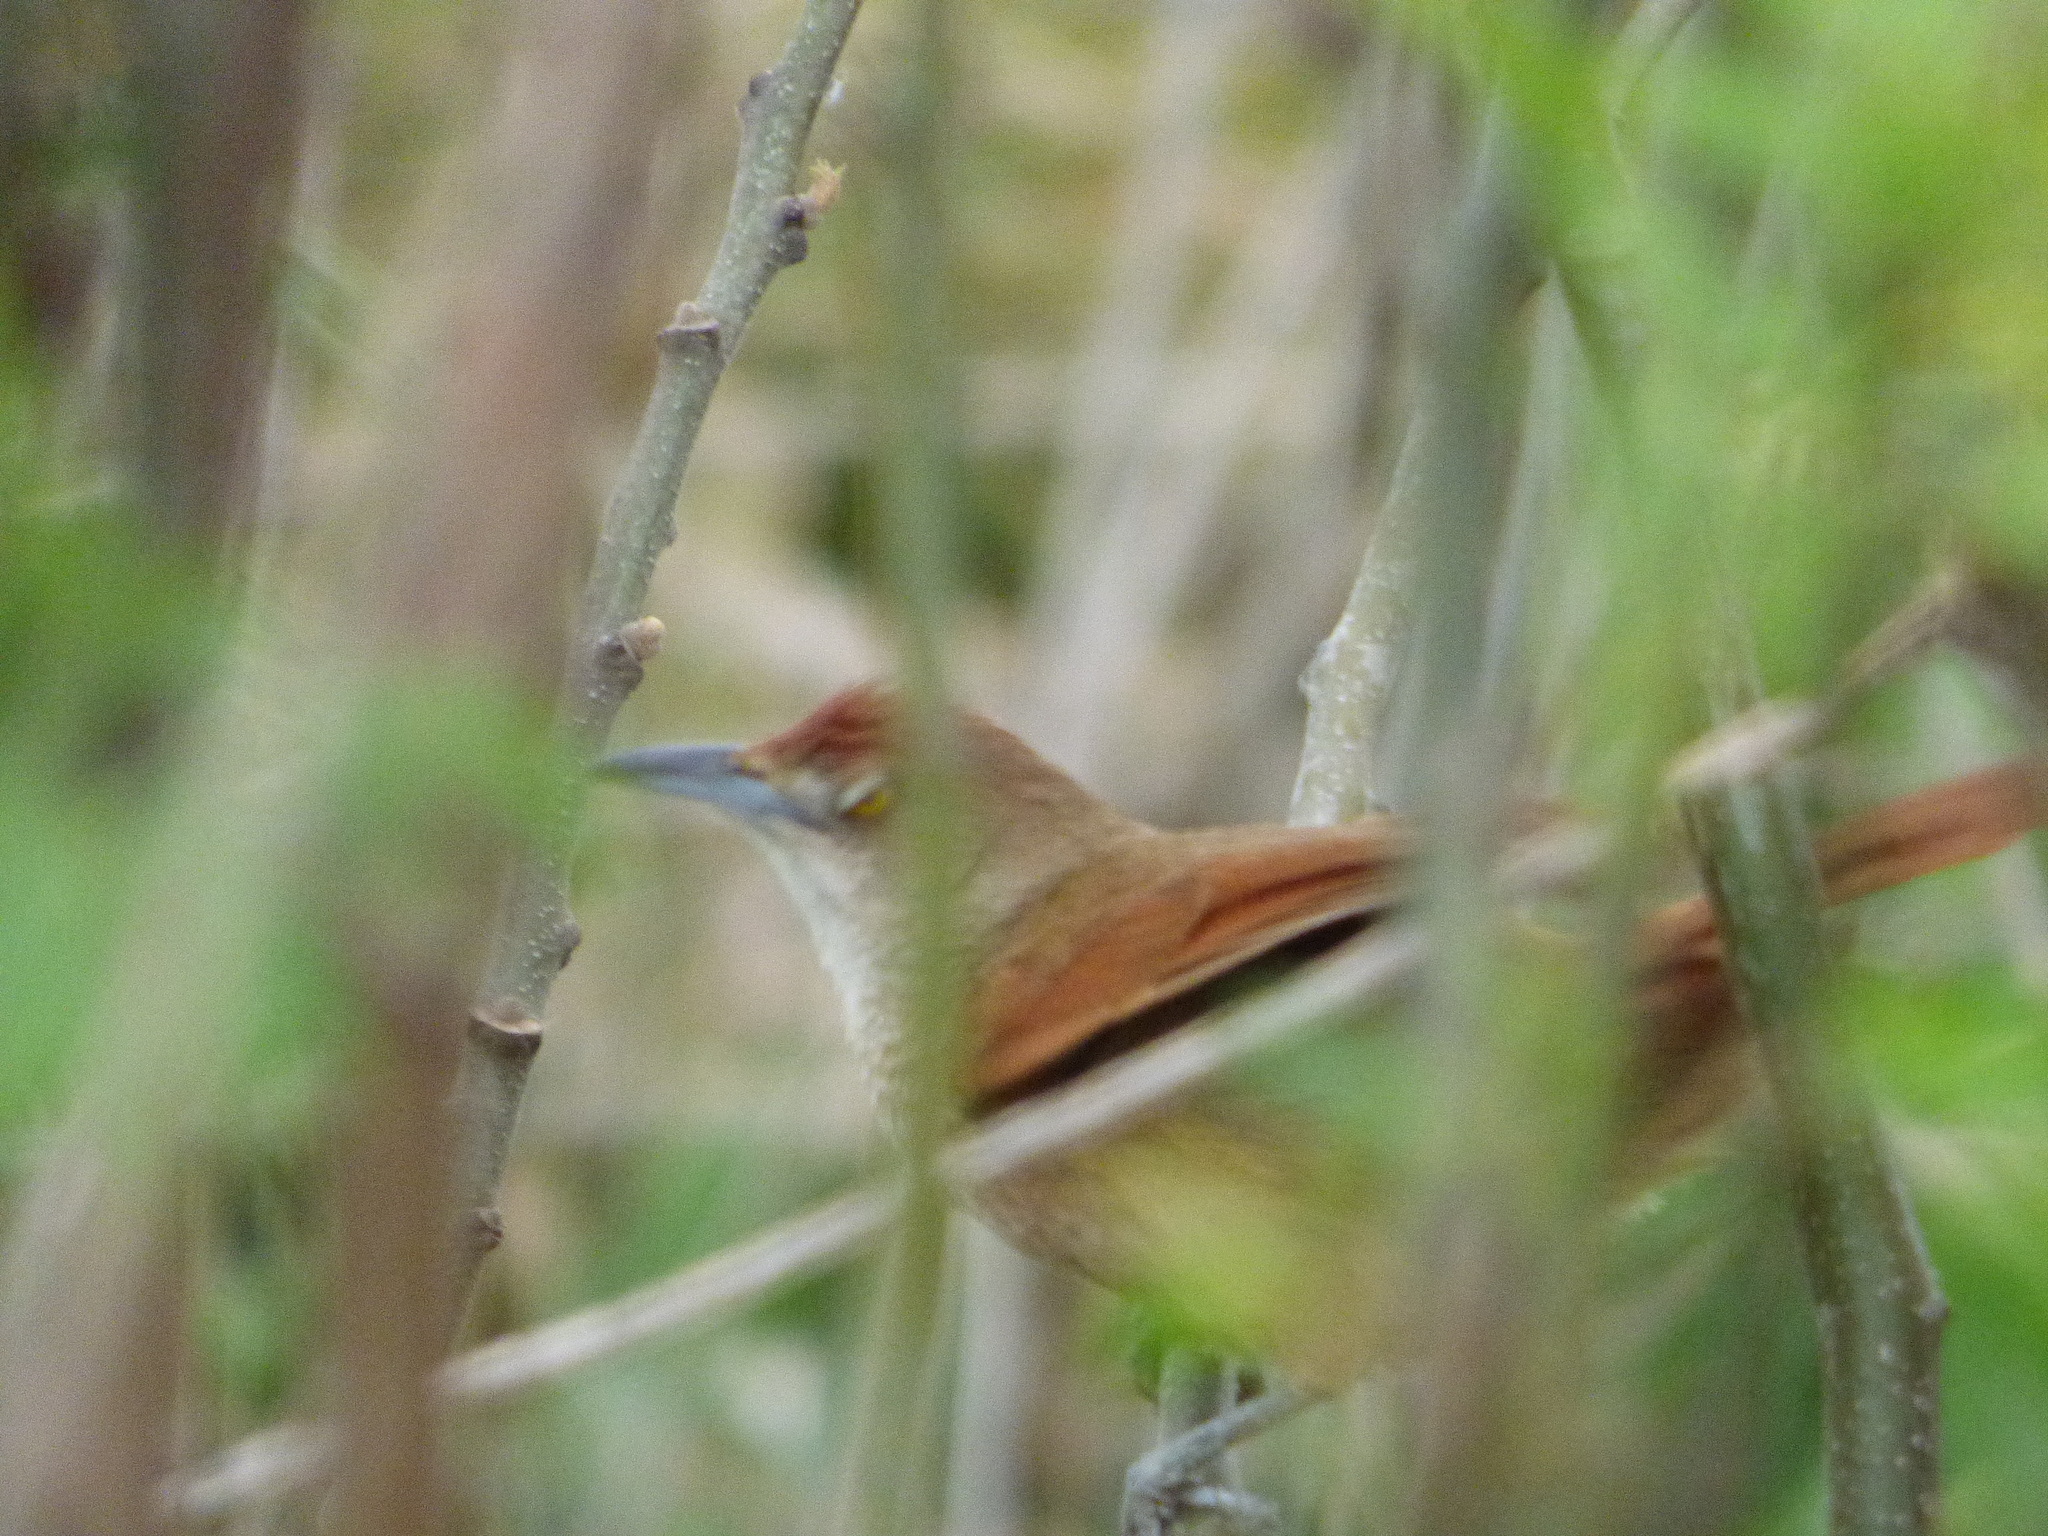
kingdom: Animalia
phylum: Chordata
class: Aves
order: Passeriformes
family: Furnariidae
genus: Phacellodomus
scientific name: Phacellodomus striaticollis
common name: Freckle-breasted thornbird
